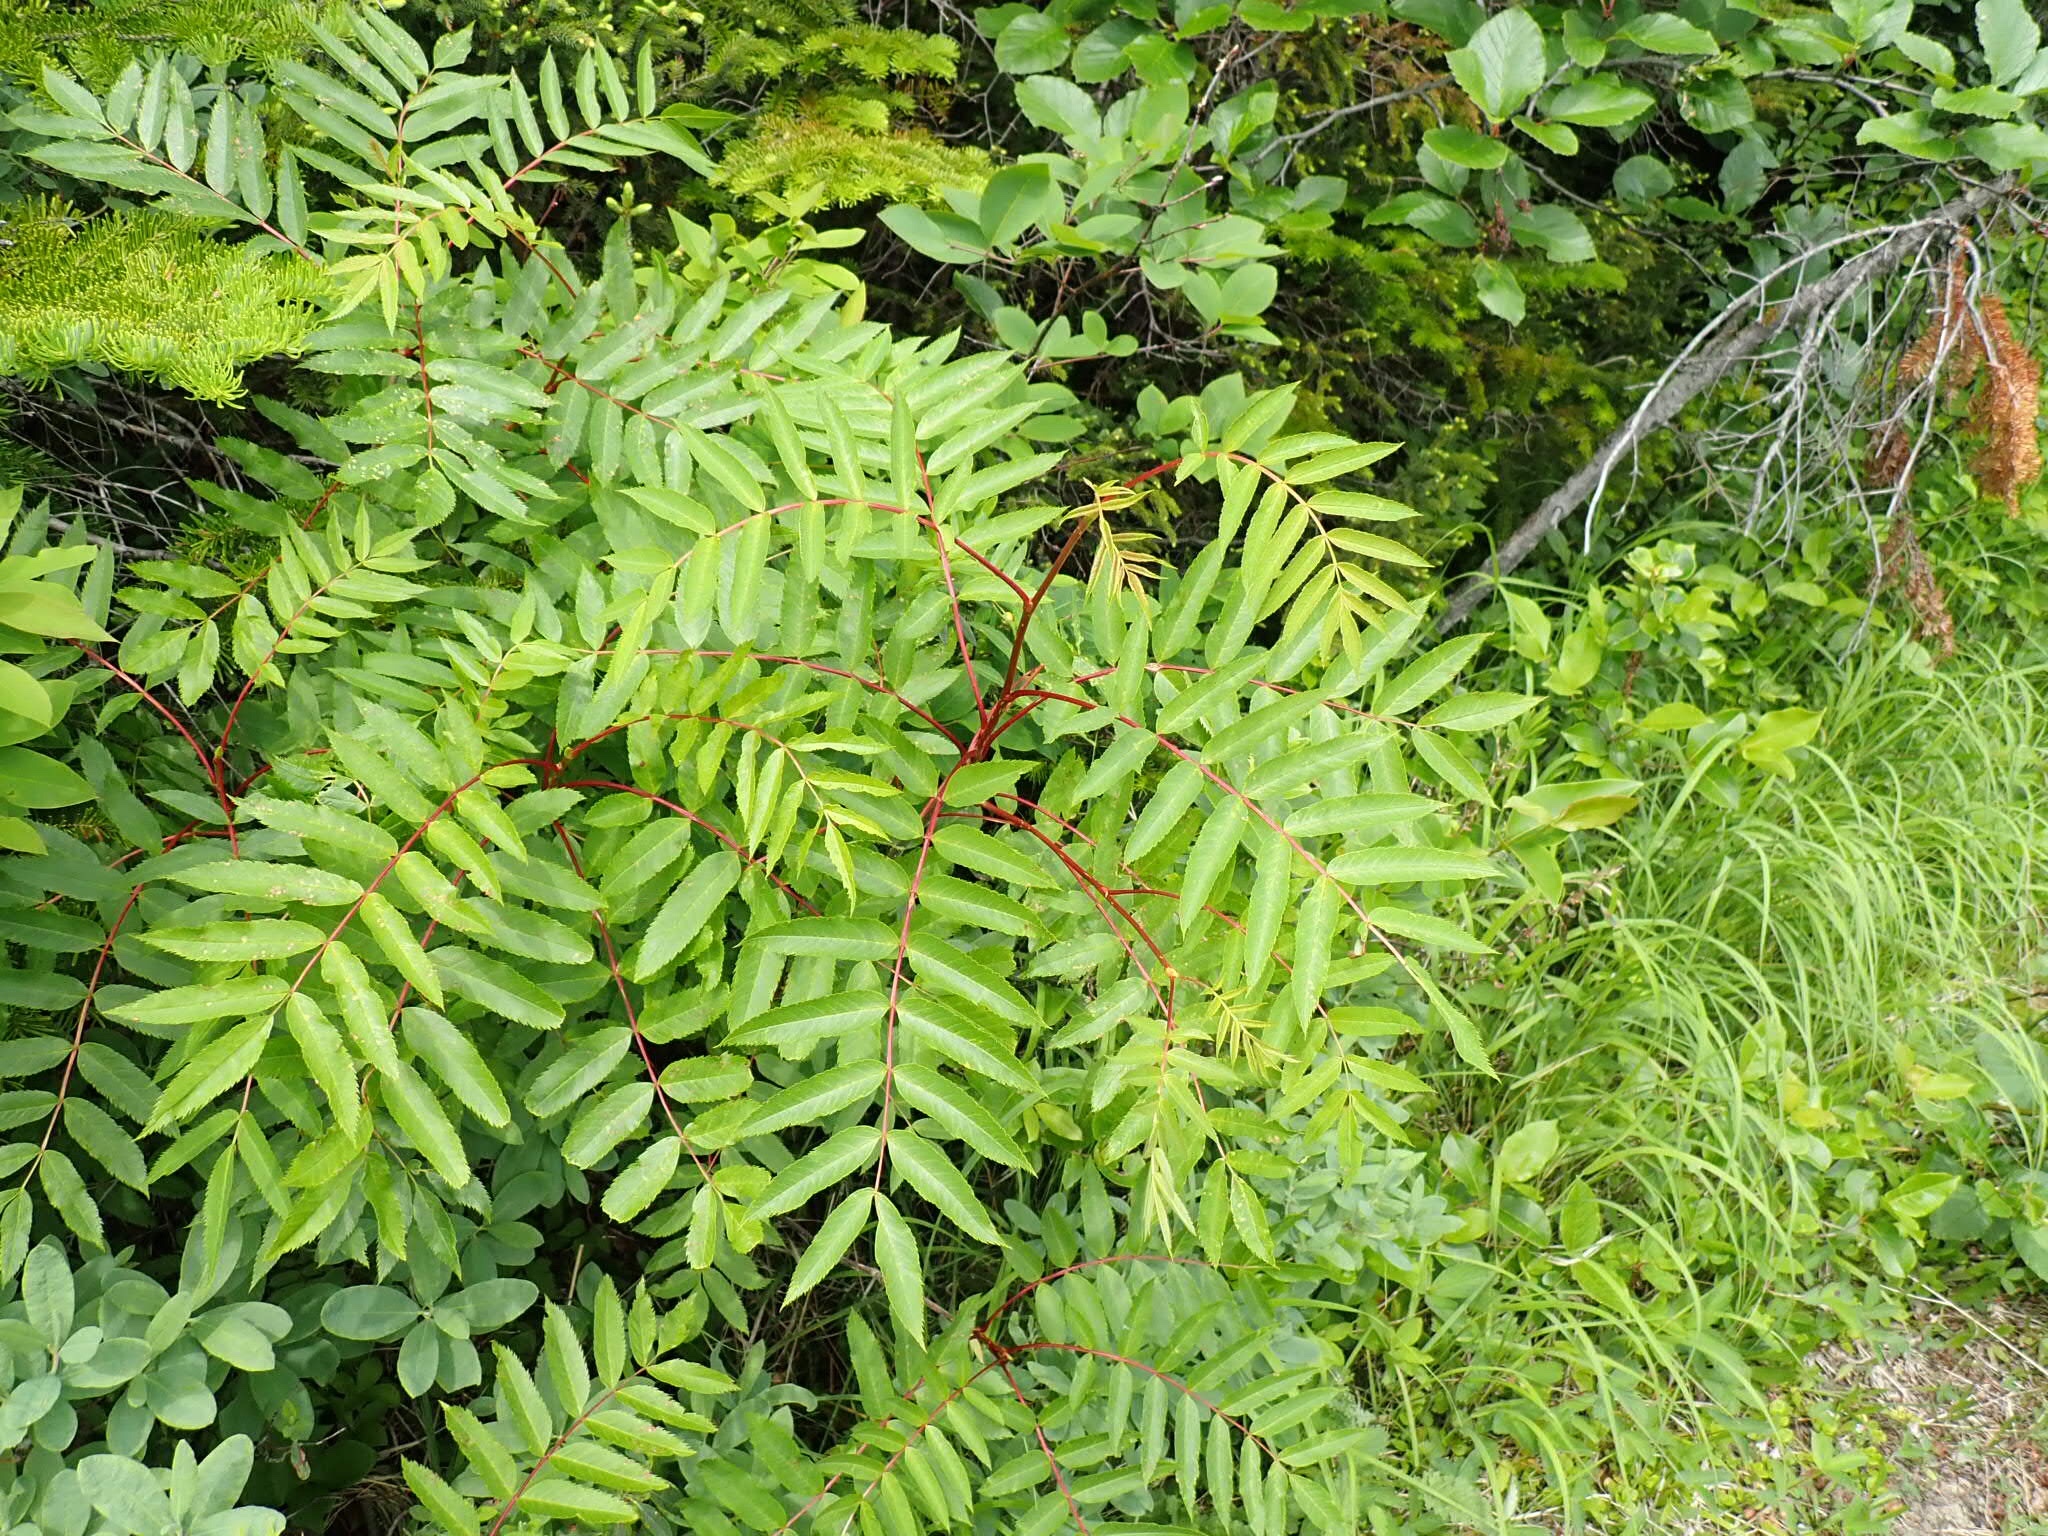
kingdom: Plantae
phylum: Tracheophyta
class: Magnoliopsida
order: Rosales
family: Rosaceae
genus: Sorbus
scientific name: Sorbus americana
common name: American mountain-ash
